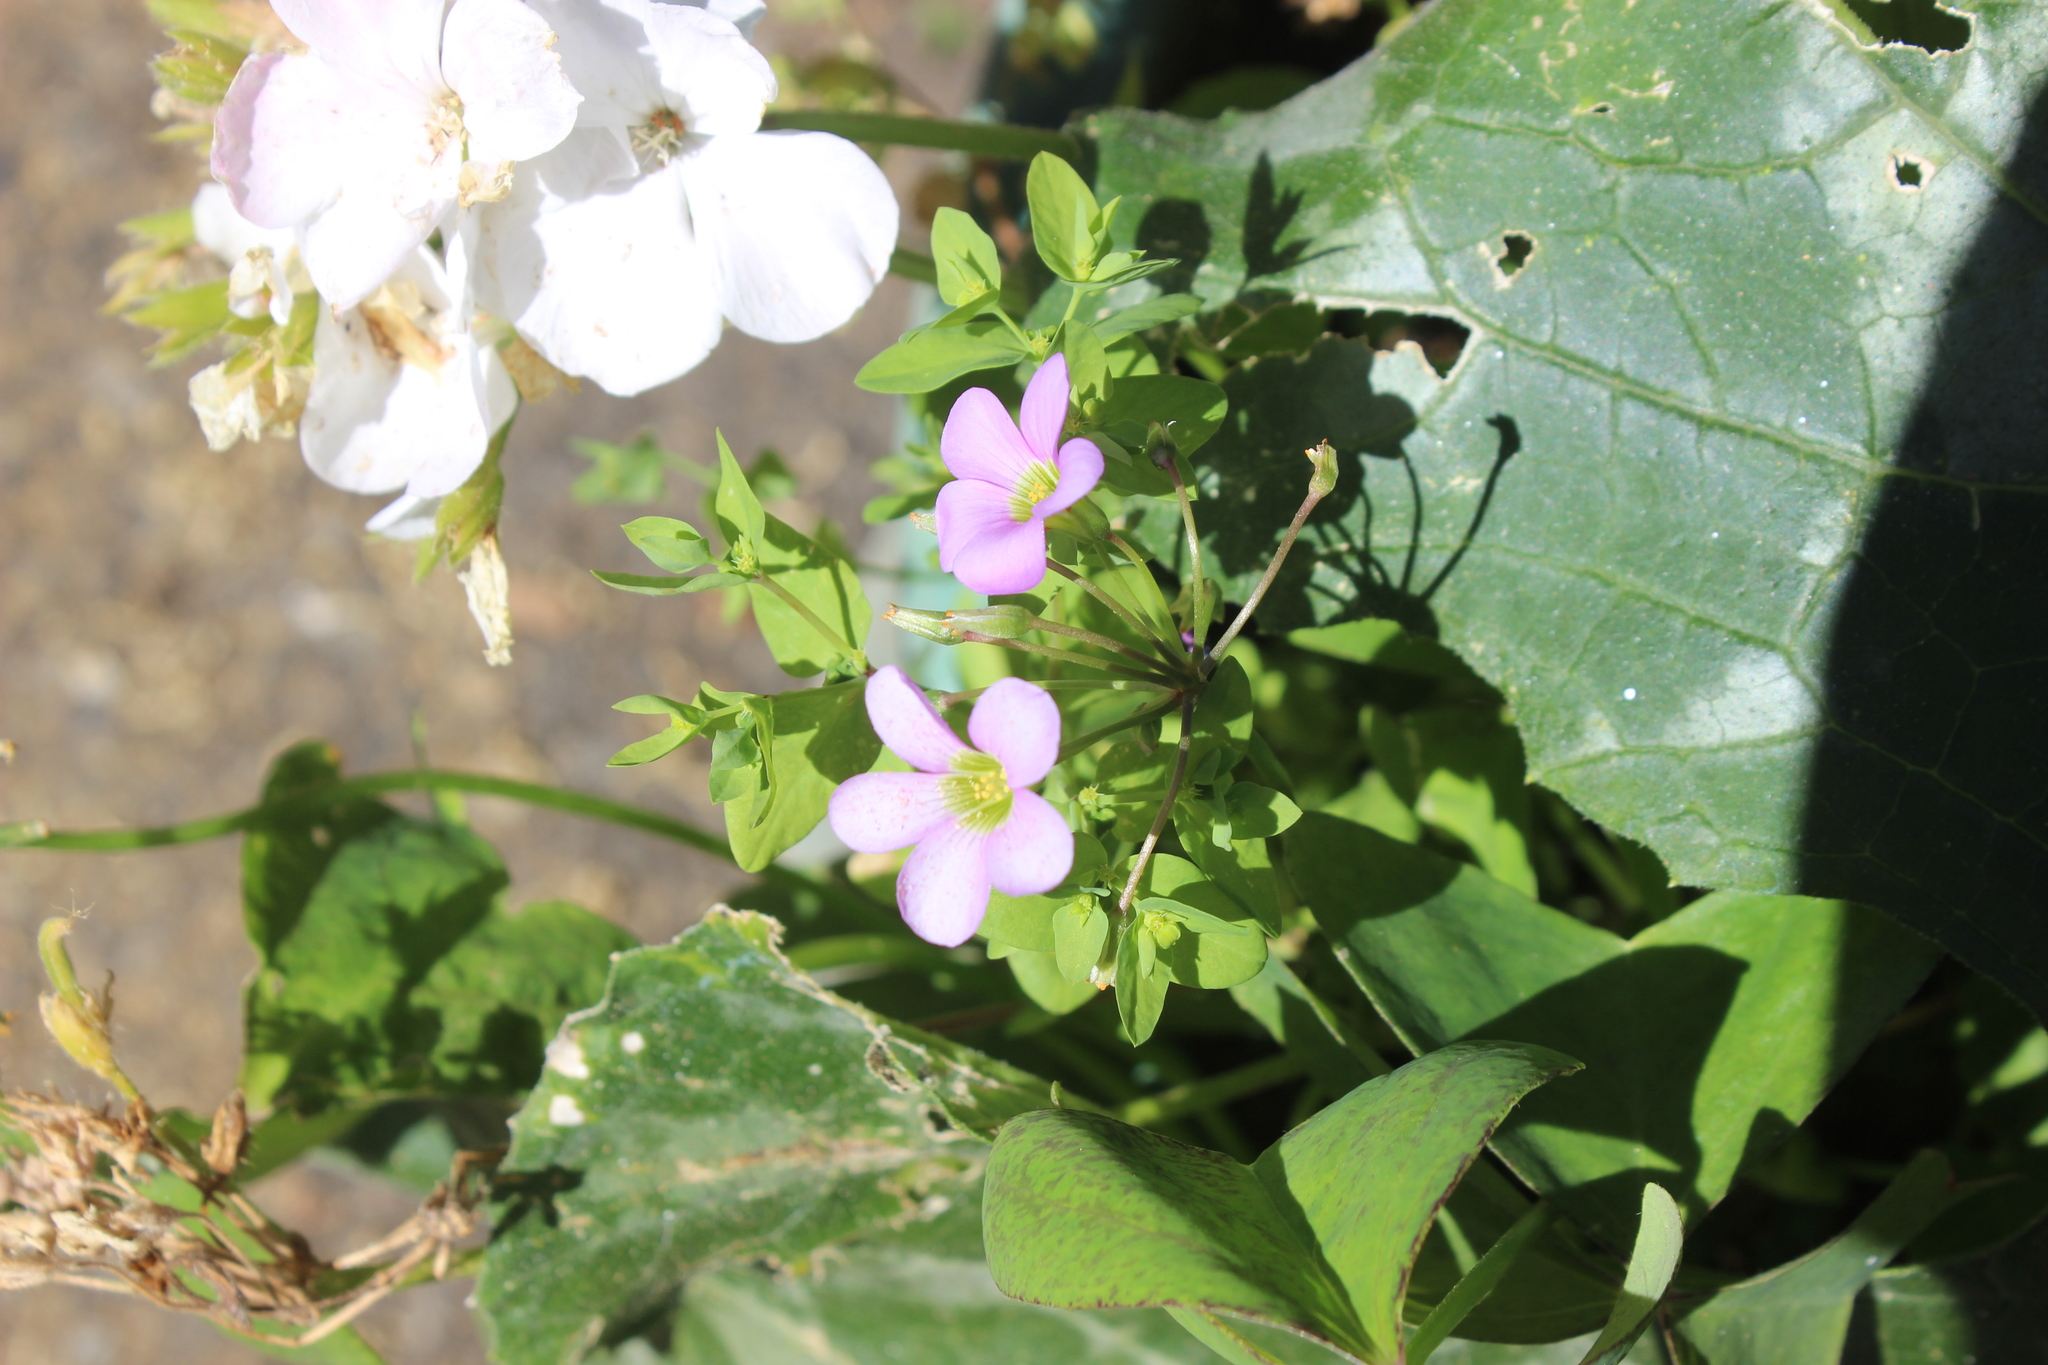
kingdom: Plantae
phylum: Tracheophyta
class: Magnoliopsida
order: Oxalidales
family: Oxalidaceae
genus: Oxalis
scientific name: Oxalis latifolia
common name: Garden pink-sorrel
